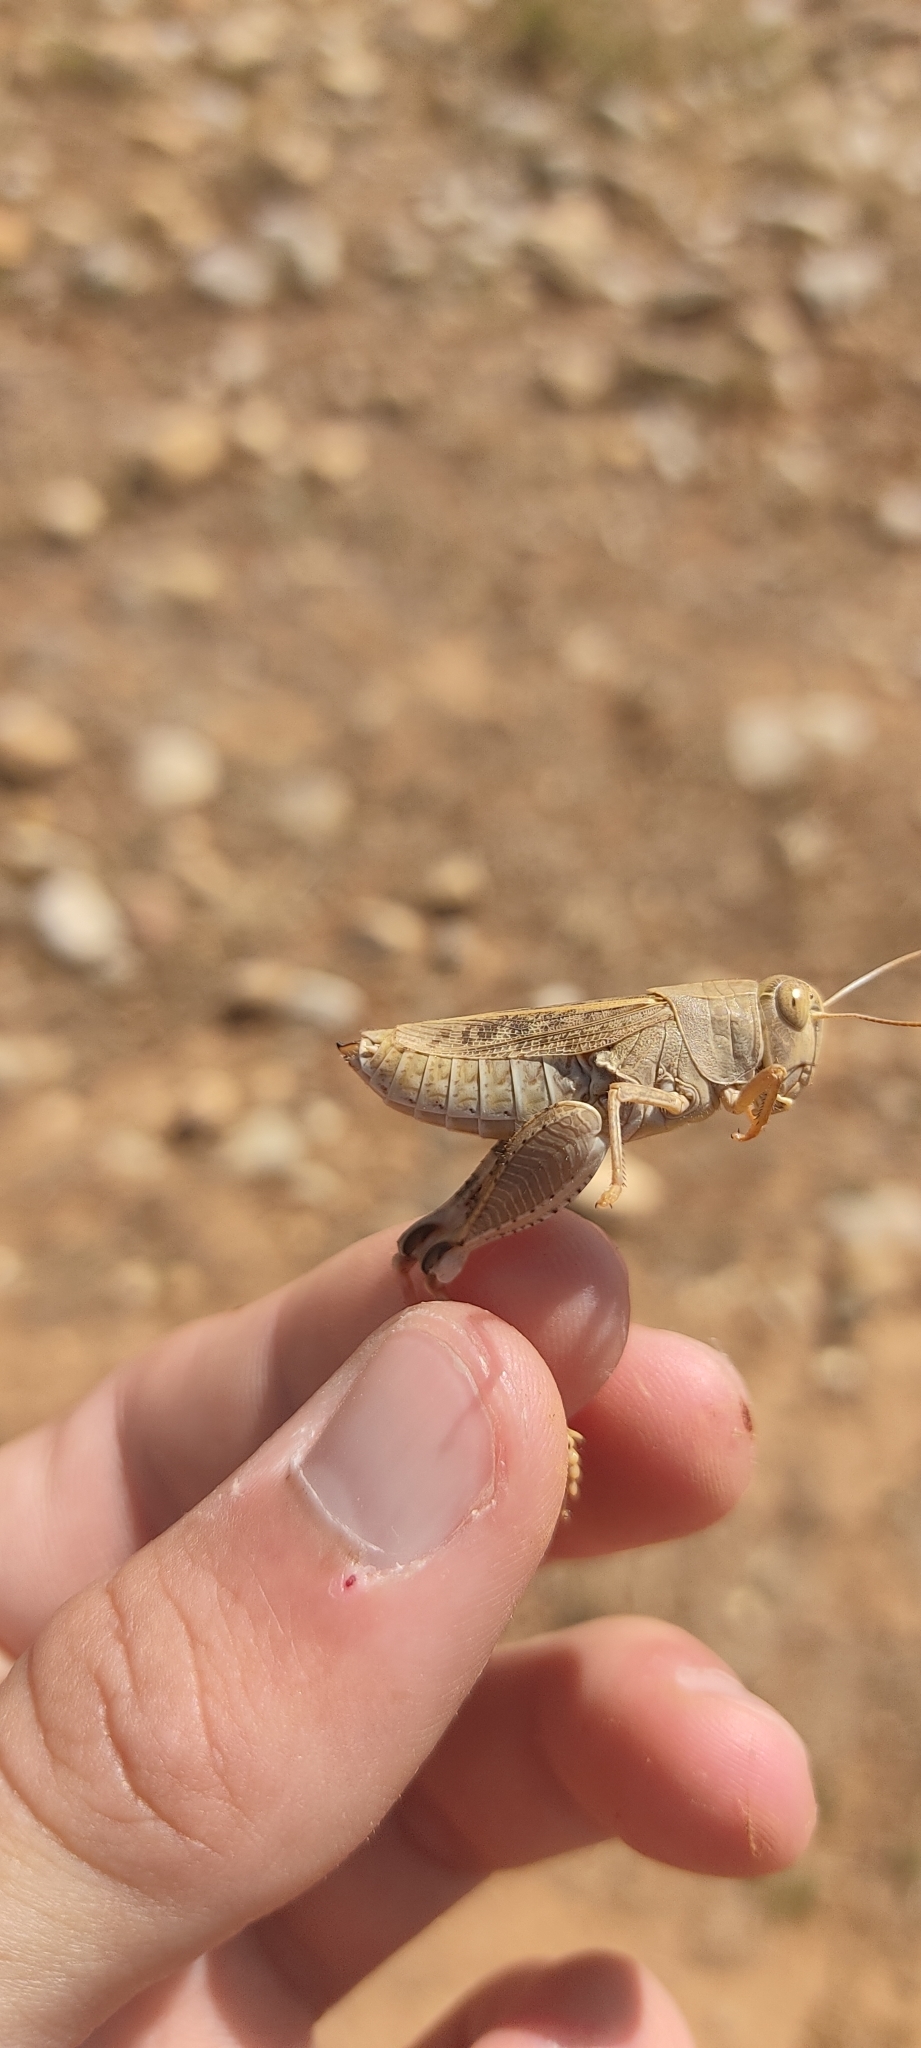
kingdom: Animalia
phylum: Arthropoda
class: Insecta
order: Orthoptera
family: Acrididae
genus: Calliptamus
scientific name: Calliptamus wattenwylianus
